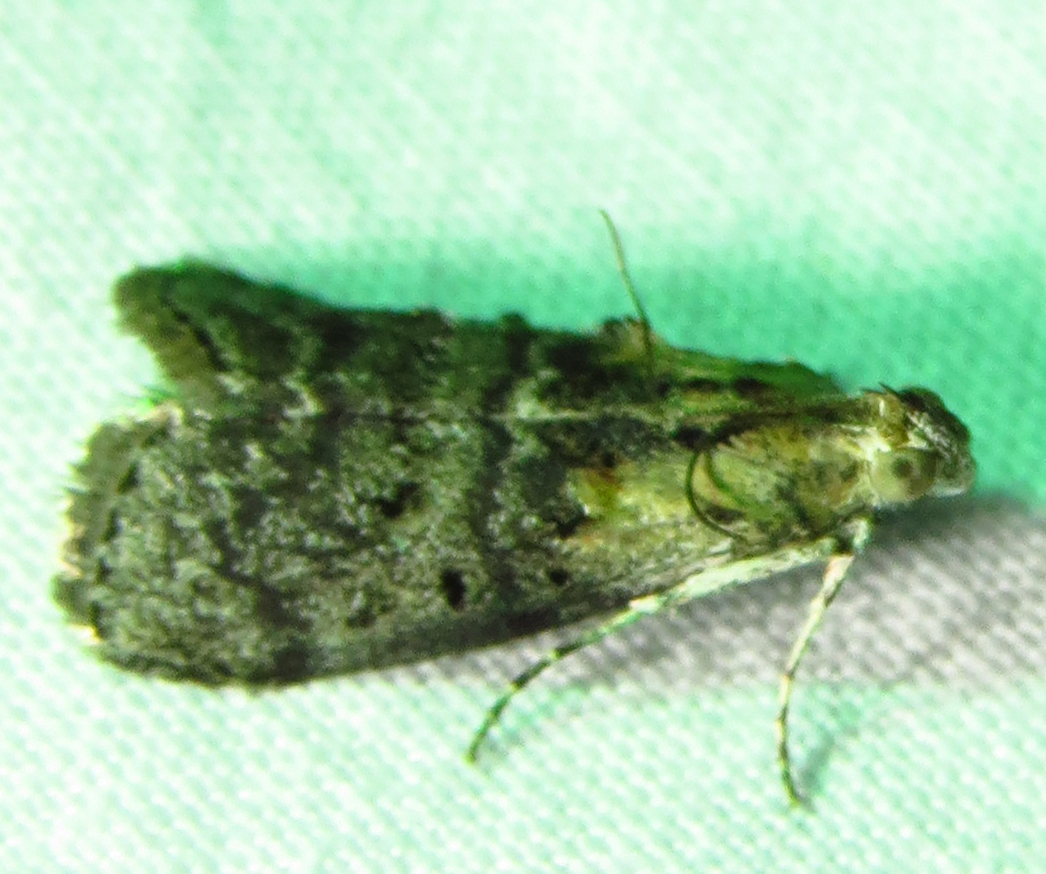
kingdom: Animalia
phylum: Arthropoda
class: Insecta
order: Lepidoptera
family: Pyralidae
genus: Pococera
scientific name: Pococera expandens
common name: Striped oak webworm moth
